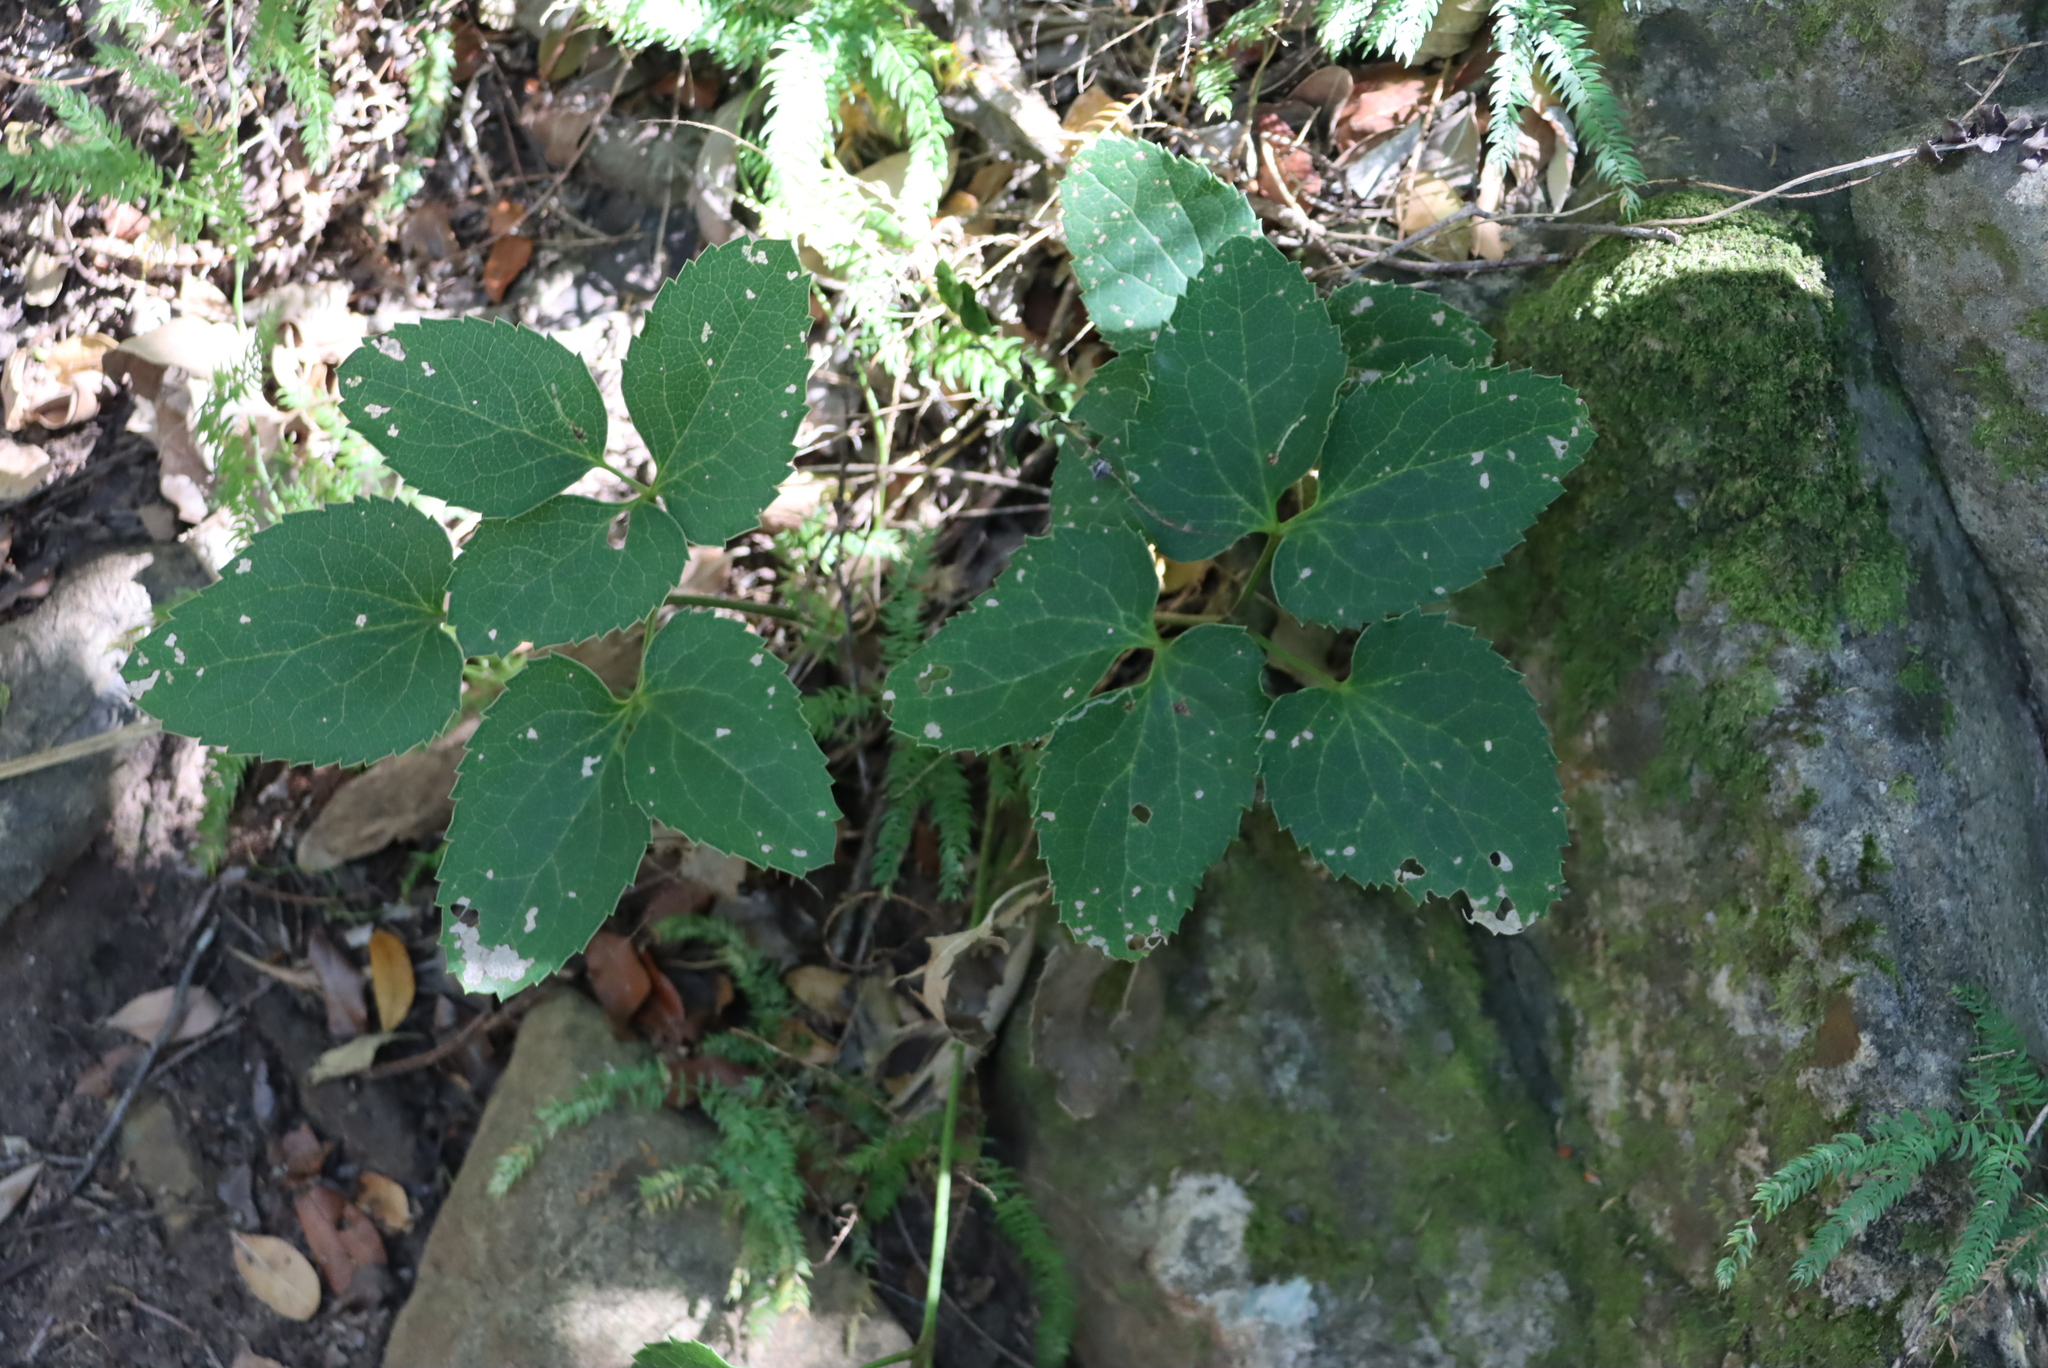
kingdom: Plantae
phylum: Tracheophyta
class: Magnoliopsida
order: Ranunculales
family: Ranunculaceae
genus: Knowltonia
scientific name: Knowltonia vesicatoria
